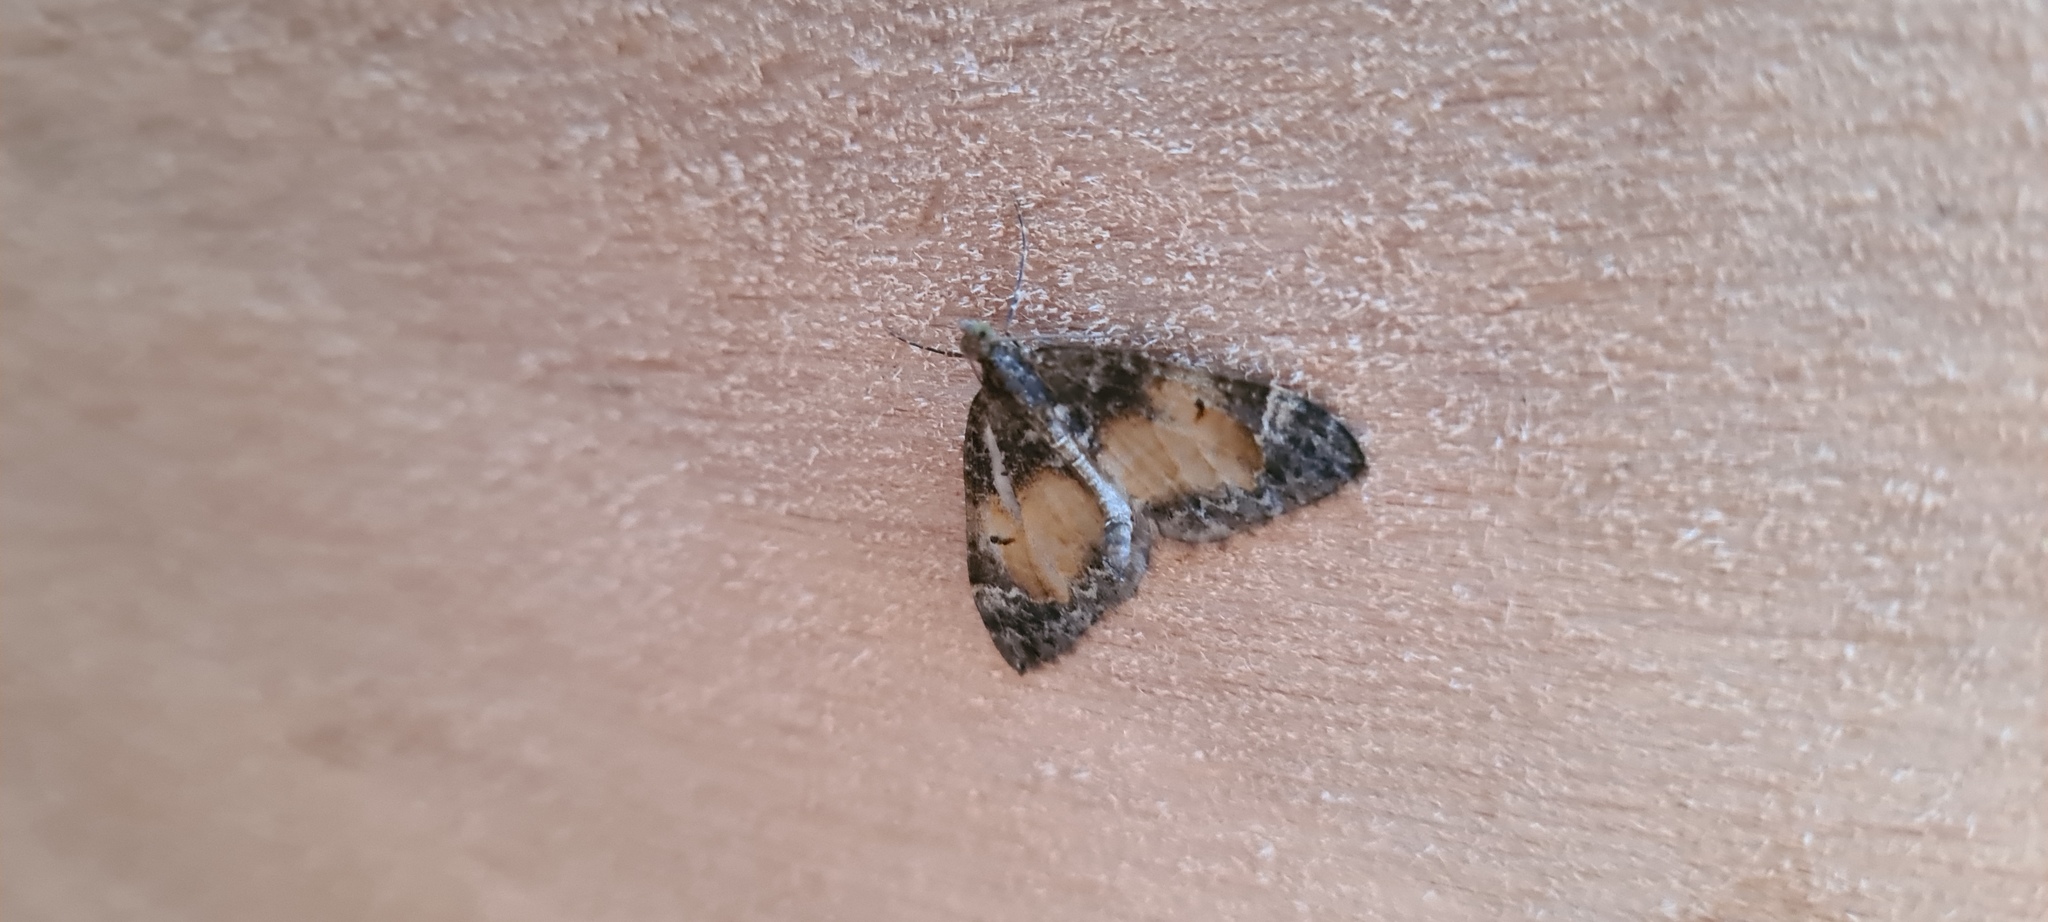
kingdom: Animalia
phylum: Arthropoda
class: Insecta
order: Lepidoptera
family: Geometridae
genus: Dysstroma
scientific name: Dysstroma truncata
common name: Common marbled carpet
